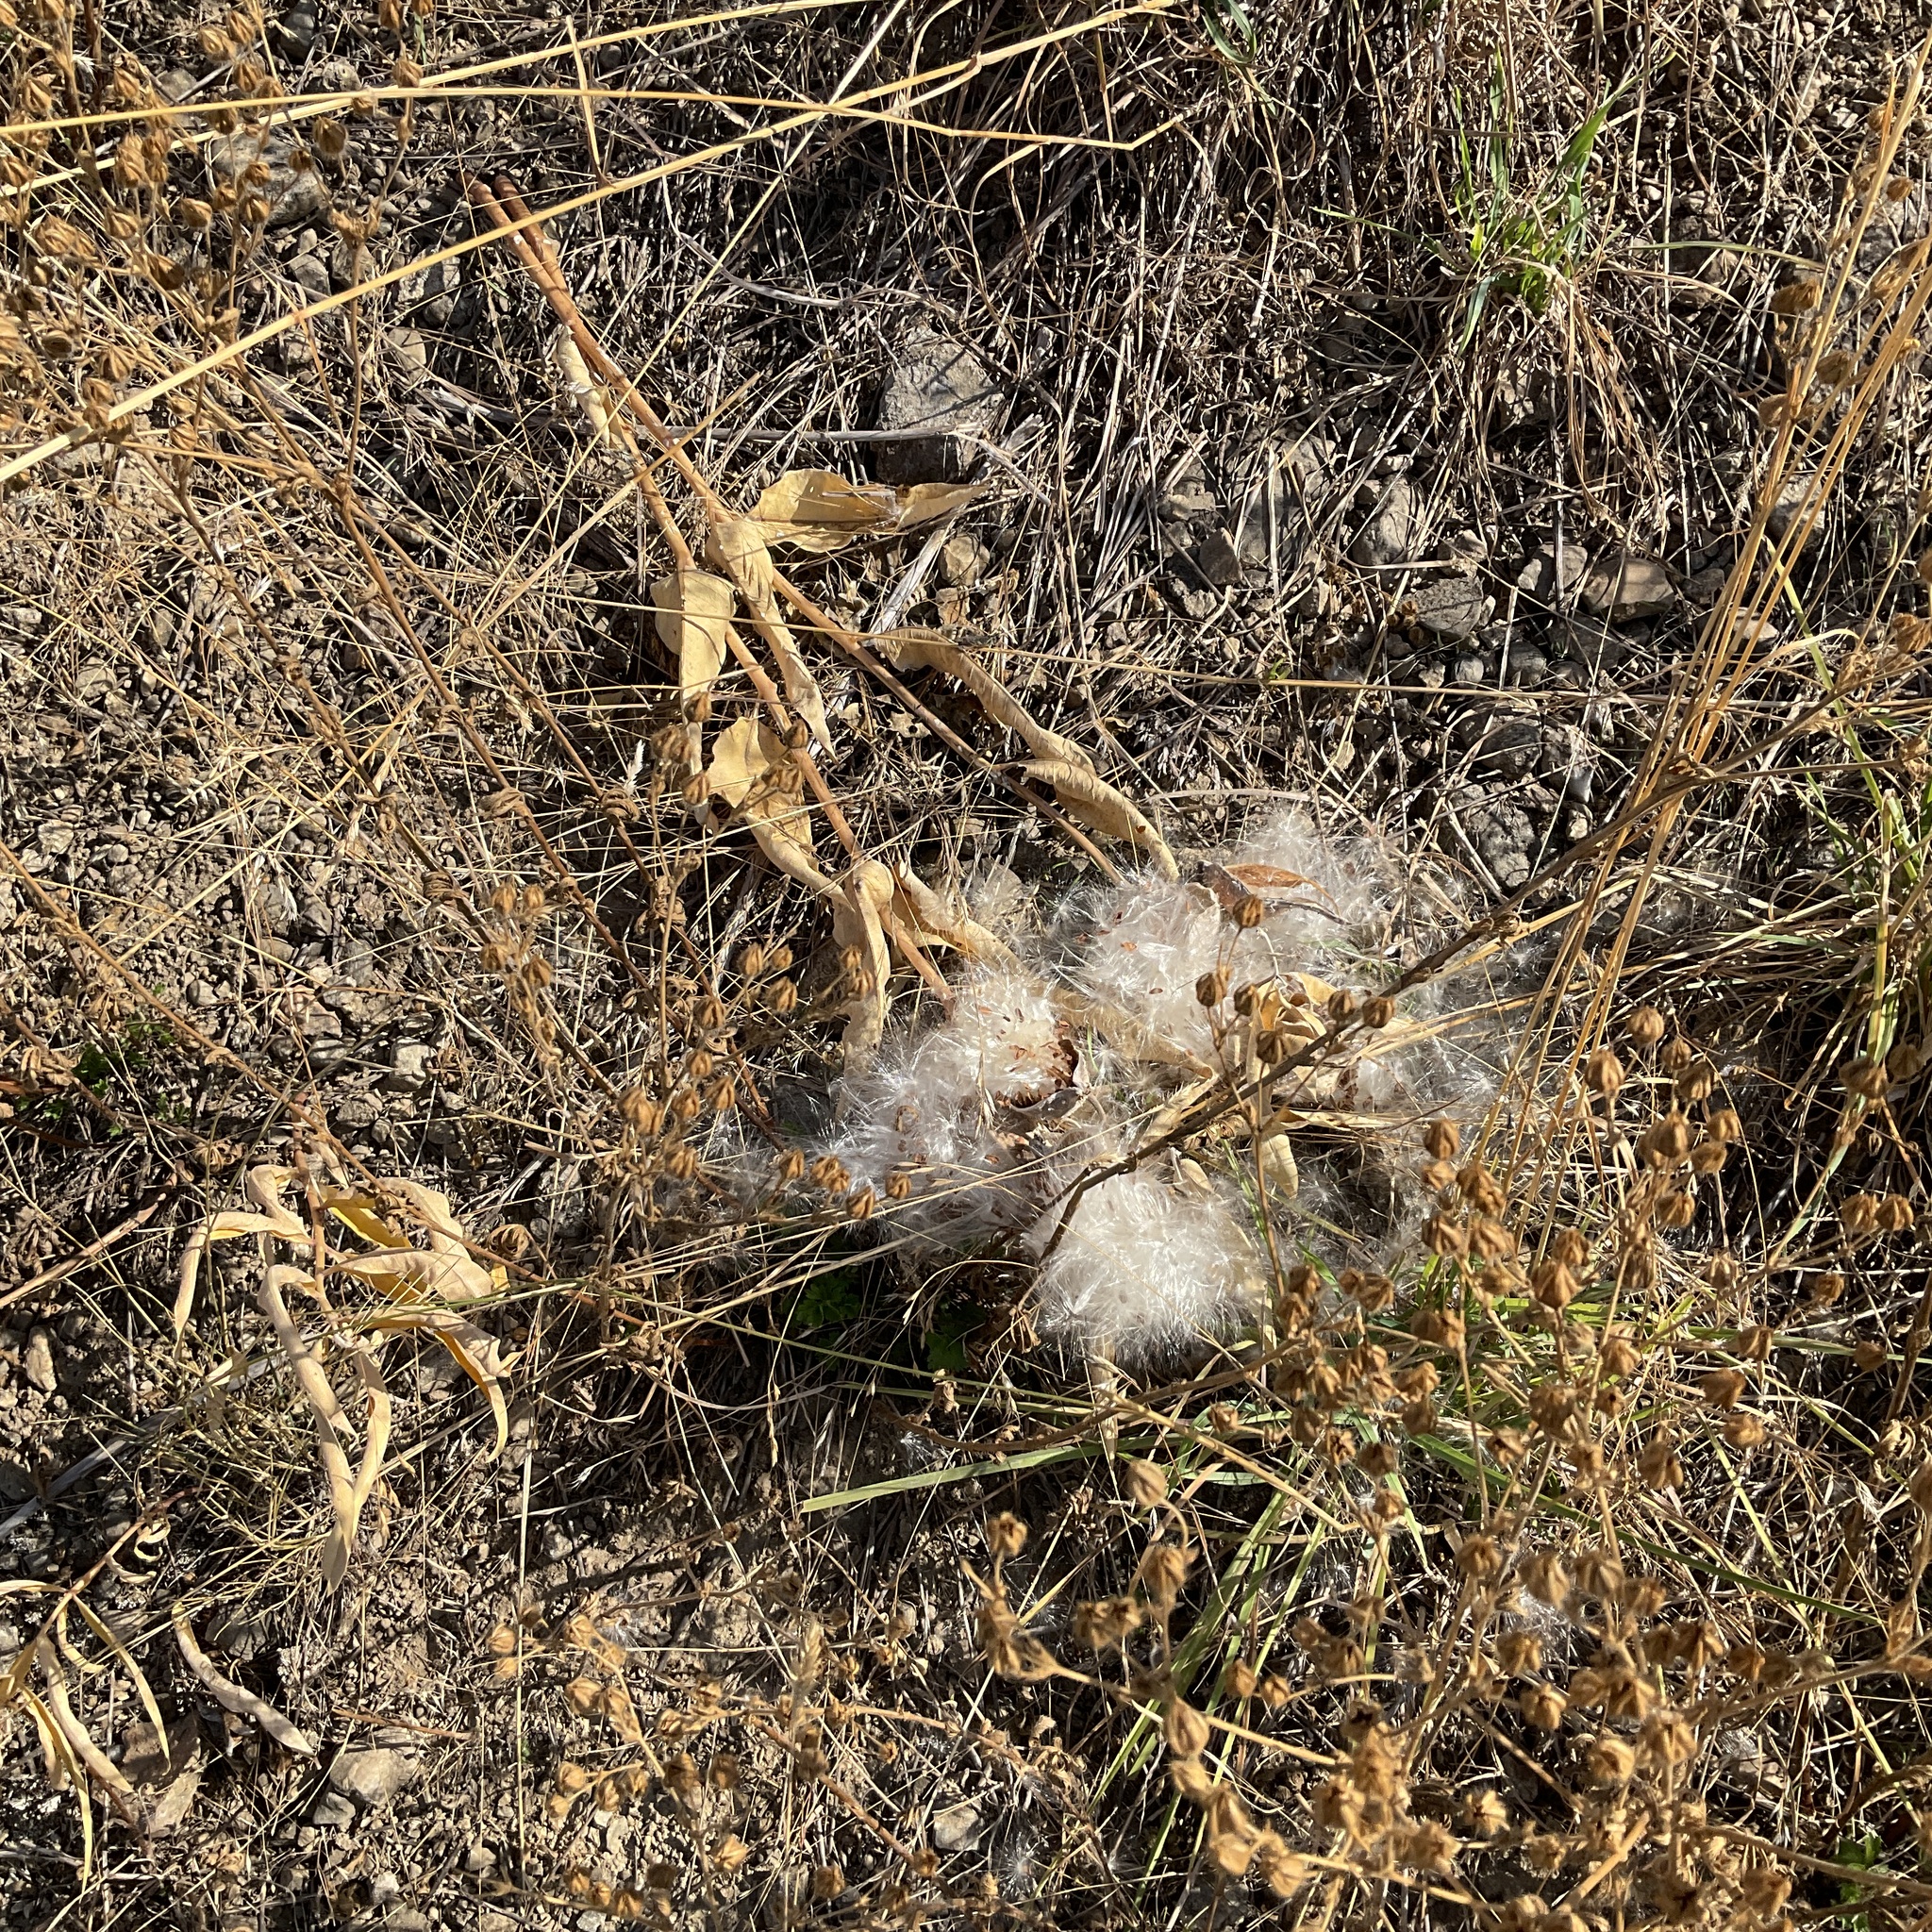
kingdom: Plantae
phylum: Tracheophyta
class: Magnoliopsida
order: Gentianales
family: Apocynaceae
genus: Asclepias
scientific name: Asclepias speciosa
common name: Showy milkweed
